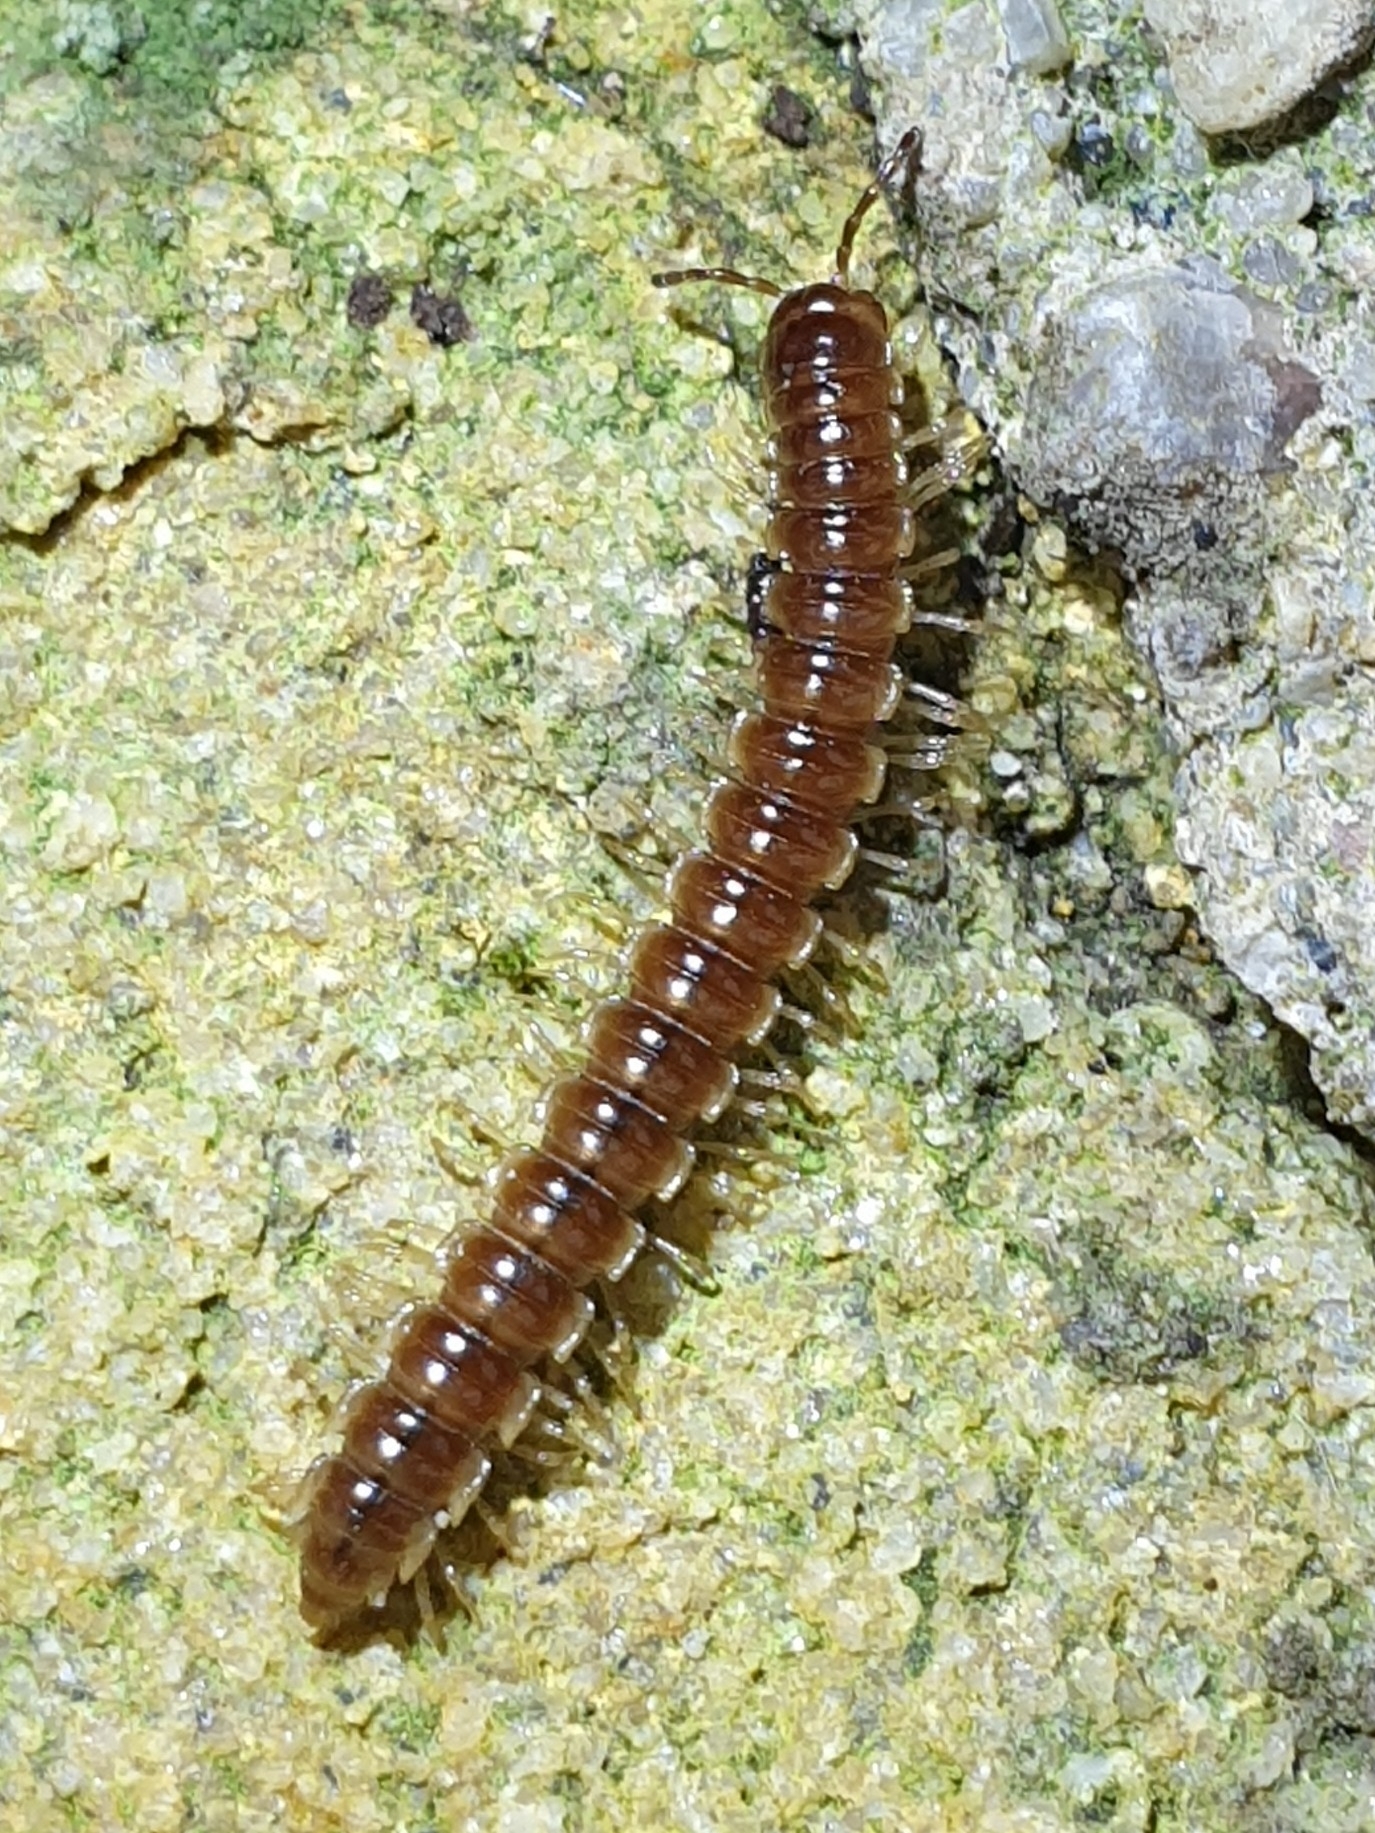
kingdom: Animalia
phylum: Arthropoda
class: Diplopoda
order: Polydesmida
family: Paradoxosomatidae
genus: Oxidus
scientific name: Oxidus gracilis
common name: Greenhouse millipede
